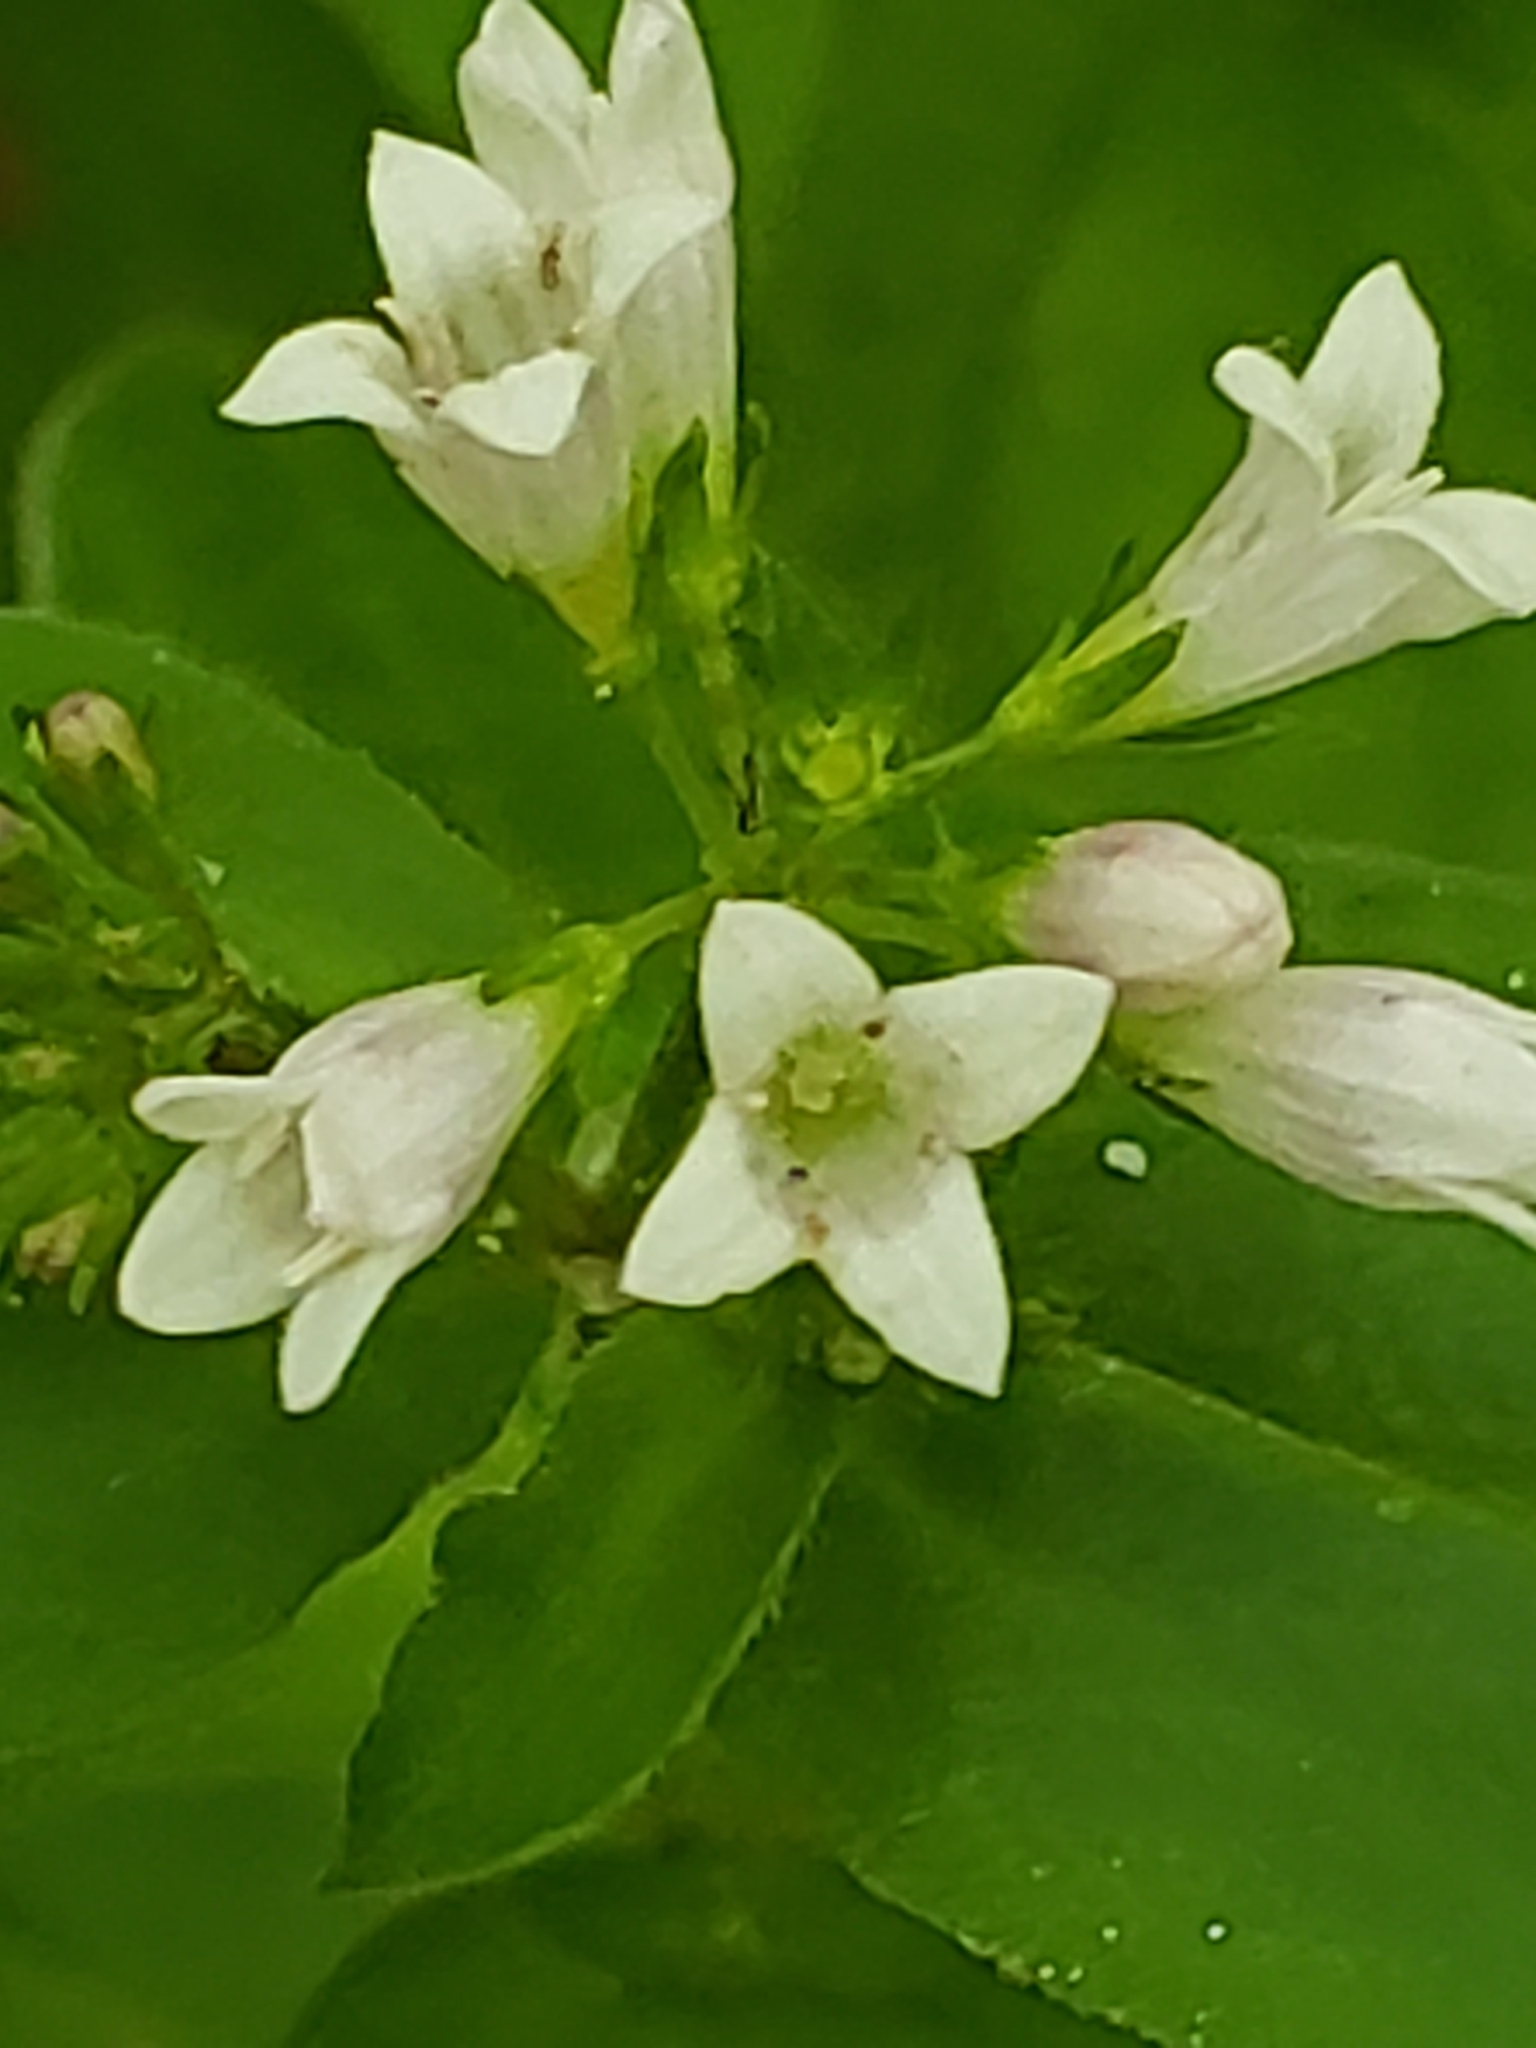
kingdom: Plantae
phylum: Tracheophyta
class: Magnoliopsida
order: Gentianales
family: Rubiaceae
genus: Houstonia
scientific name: Houstonia purpurea
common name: Summer bluet
